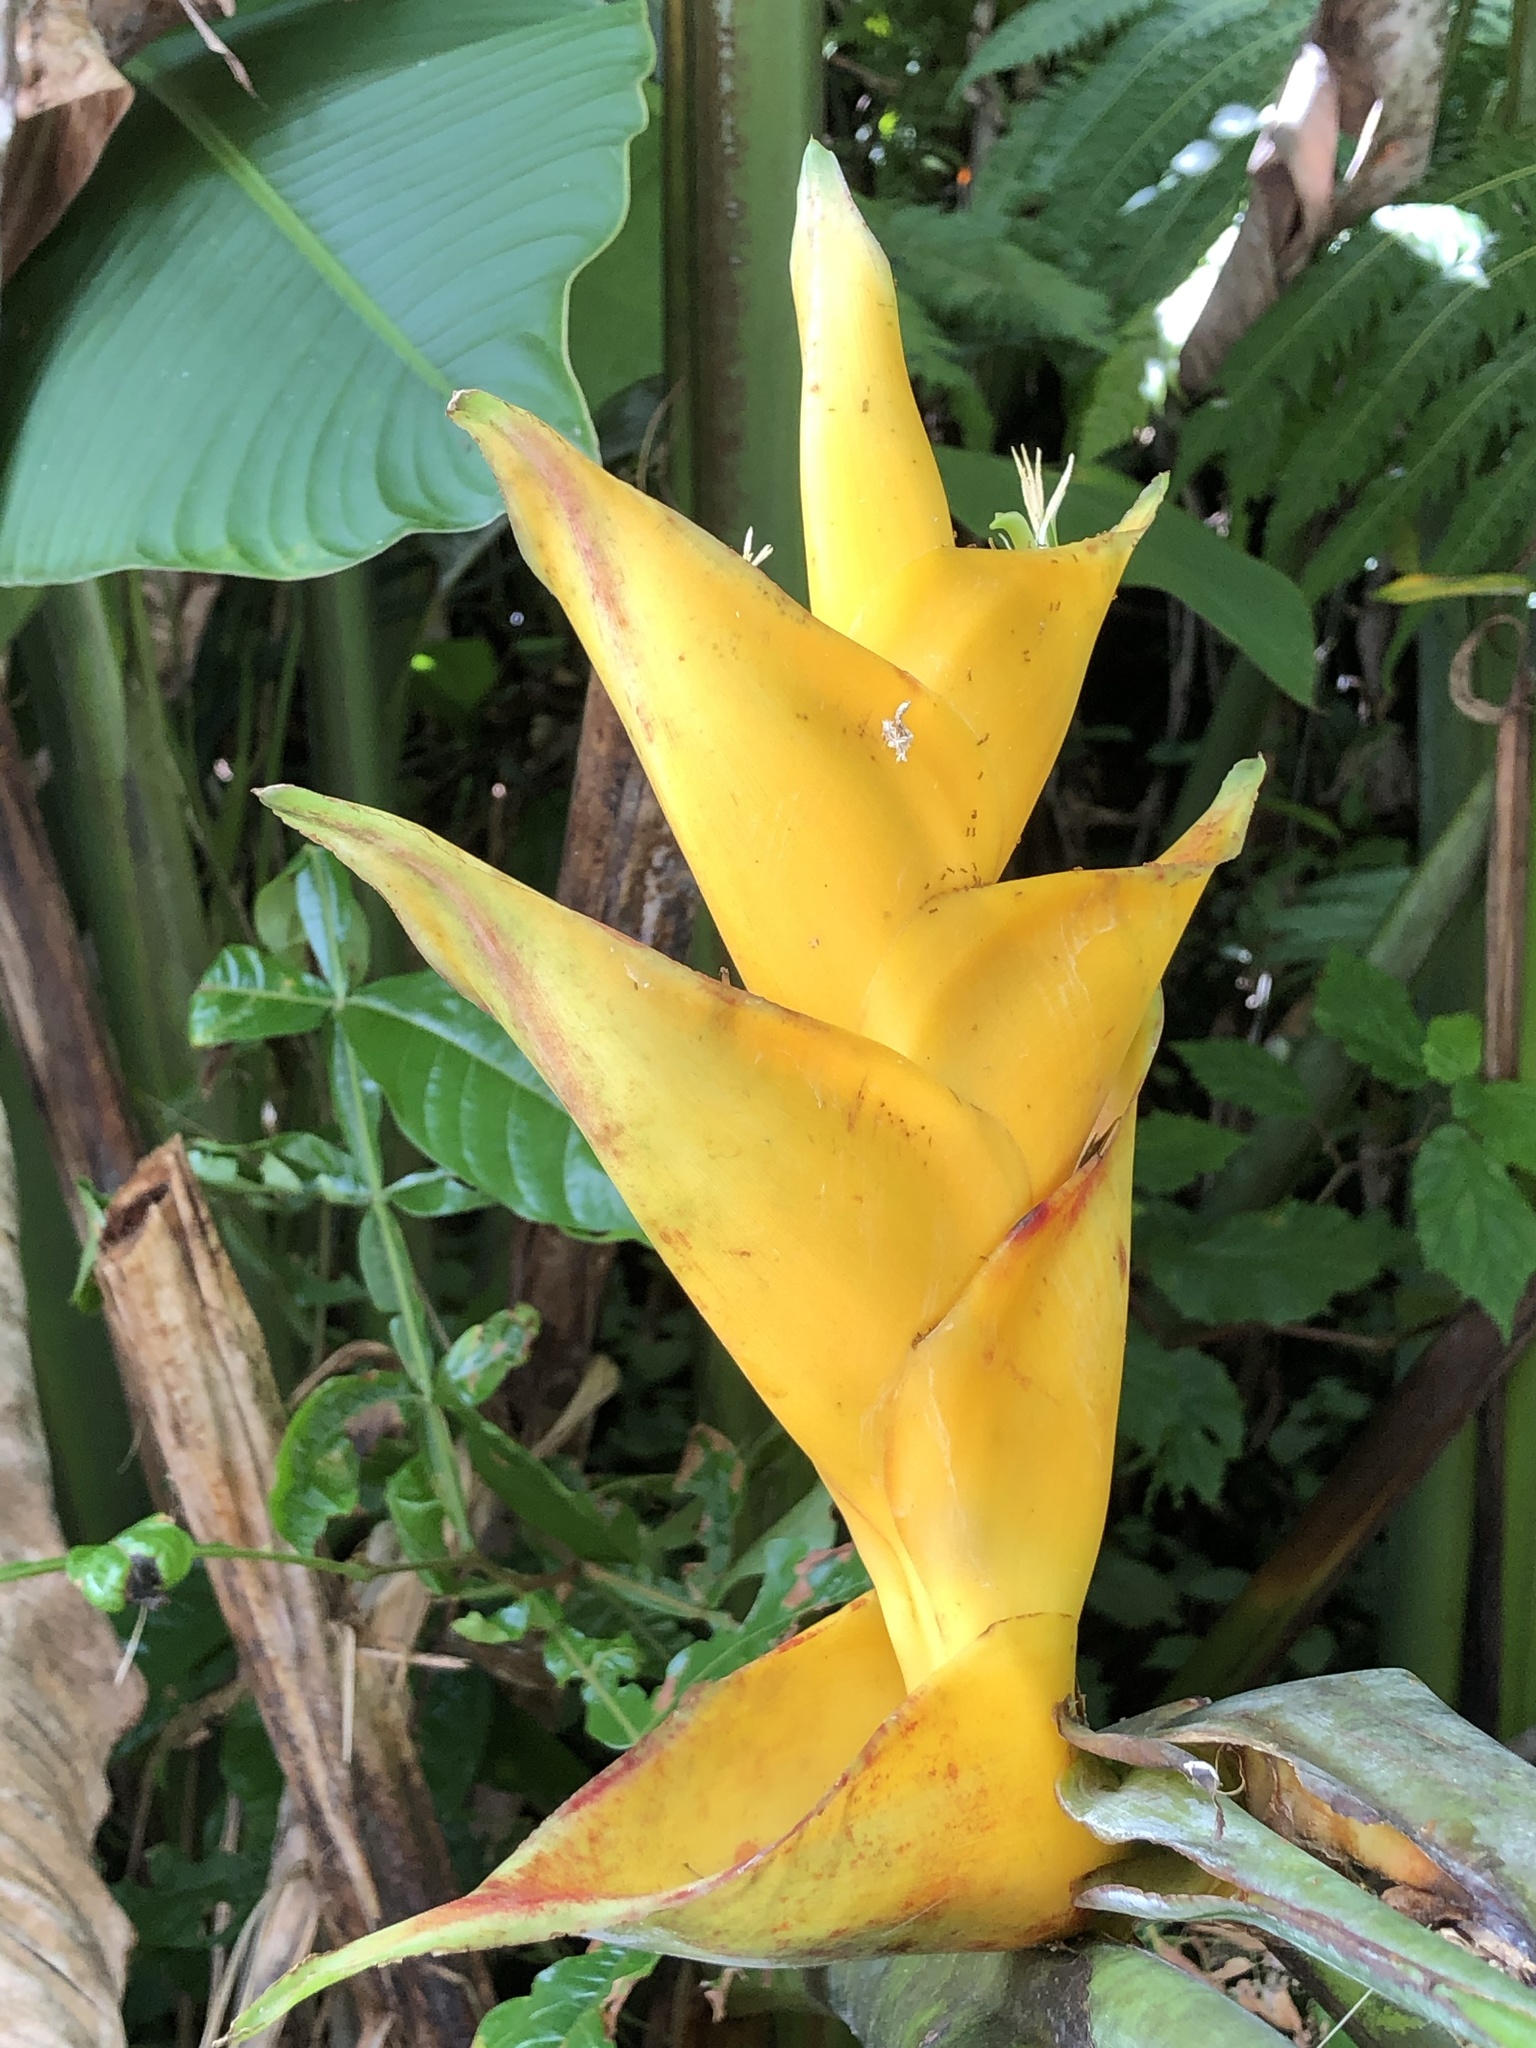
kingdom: Plantae
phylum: Tracheophyta
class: Liliopsida
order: Zingiberales
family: Heliconiaceae
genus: Heliconia
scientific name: Heliconia caribaea
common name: Wild plantain
